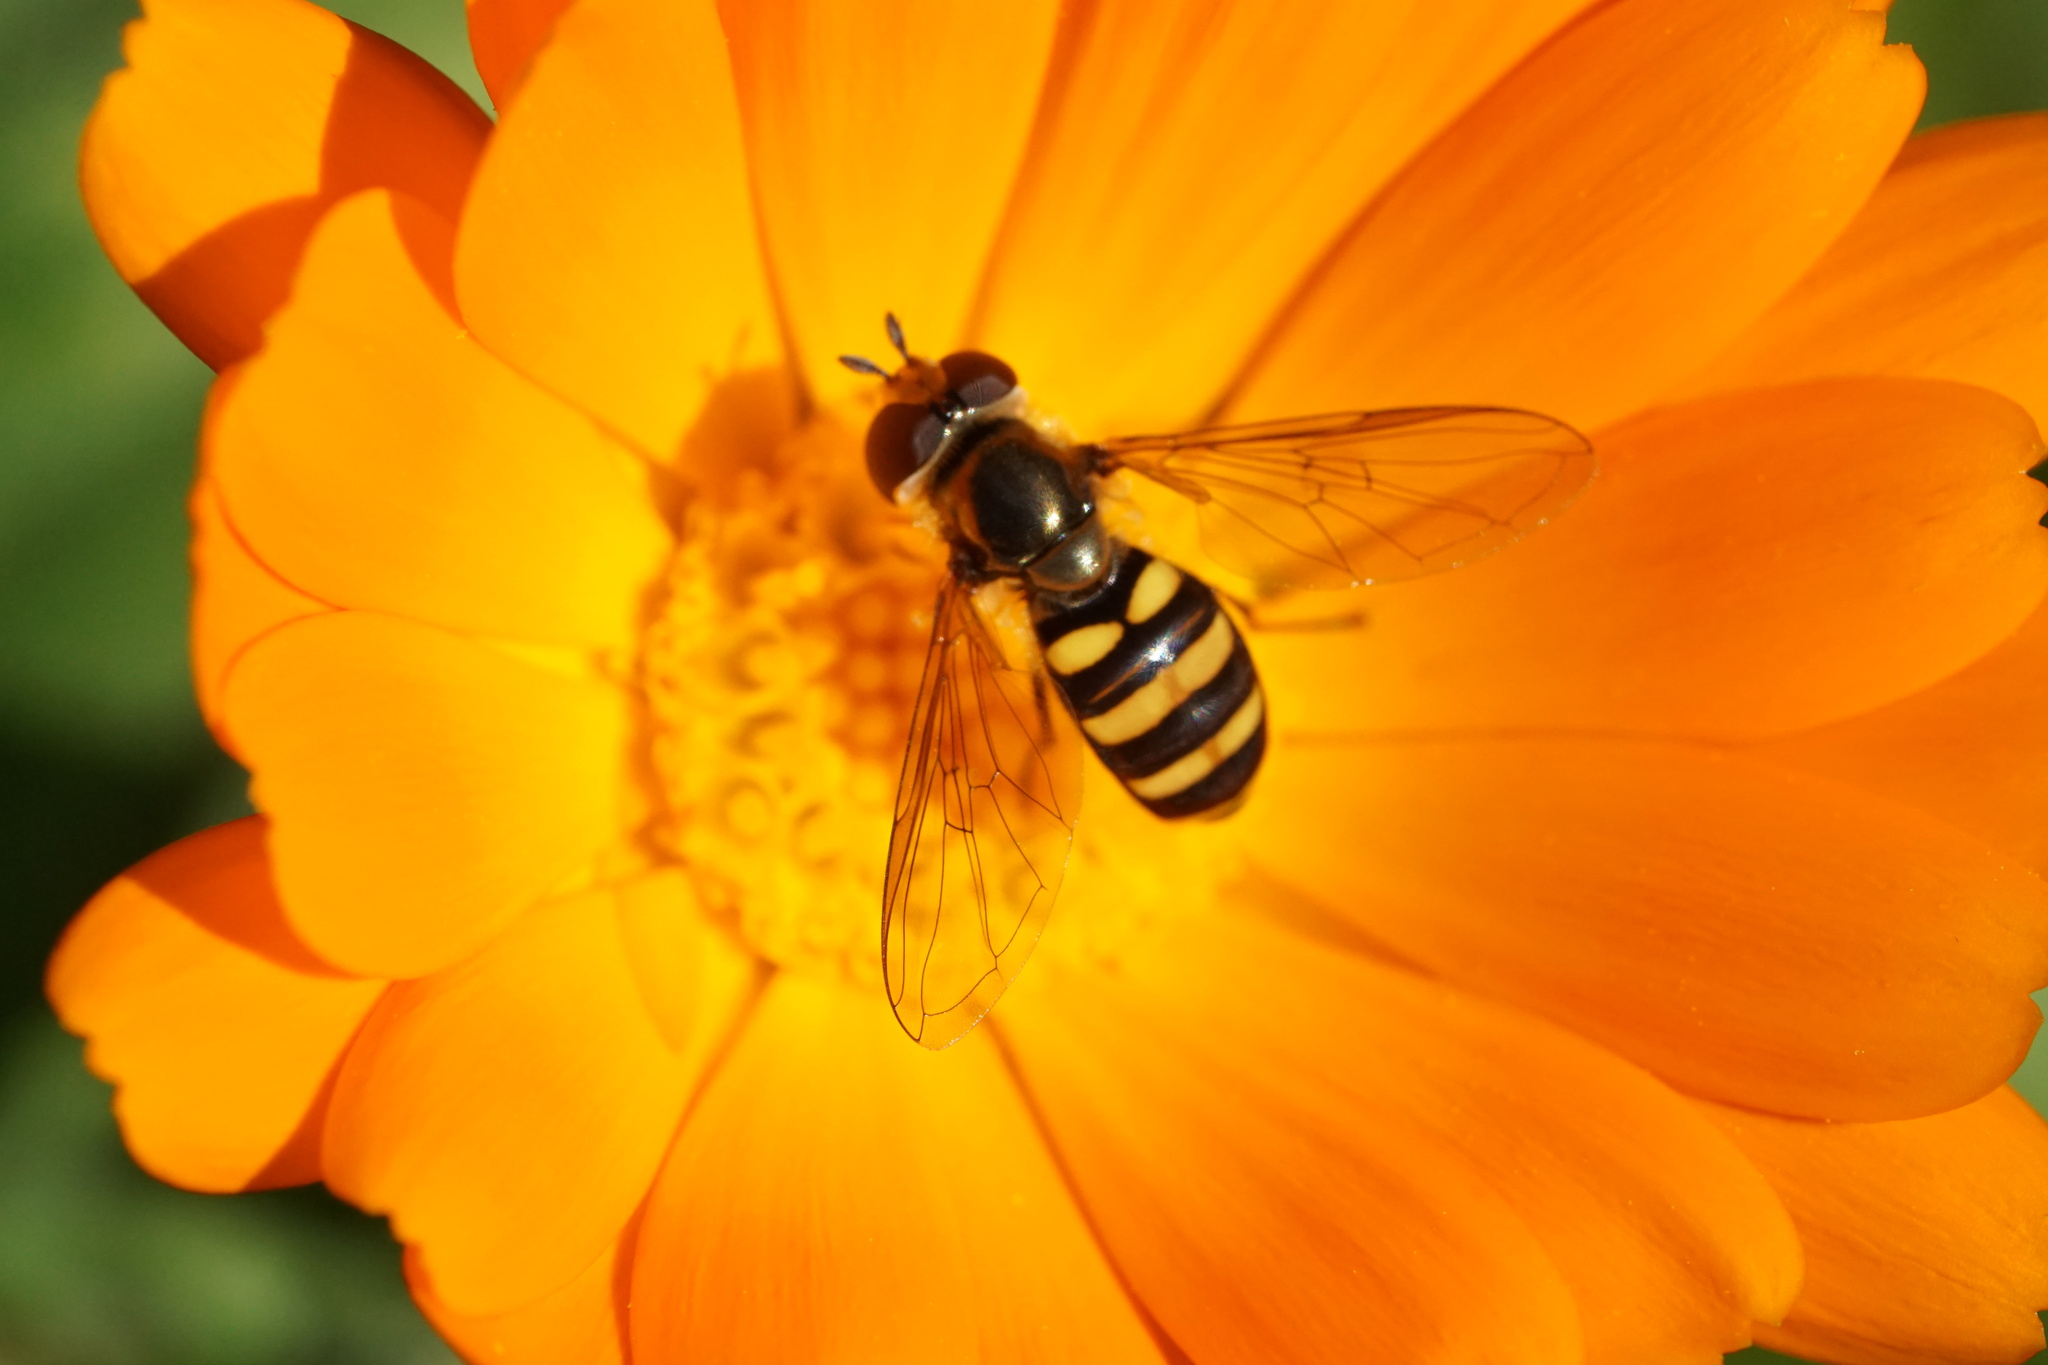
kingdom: Animalia
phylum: Arthropoda
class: Insecta
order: Diptera
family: Syrphidae
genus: Eupeodes
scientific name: Eupeodes
